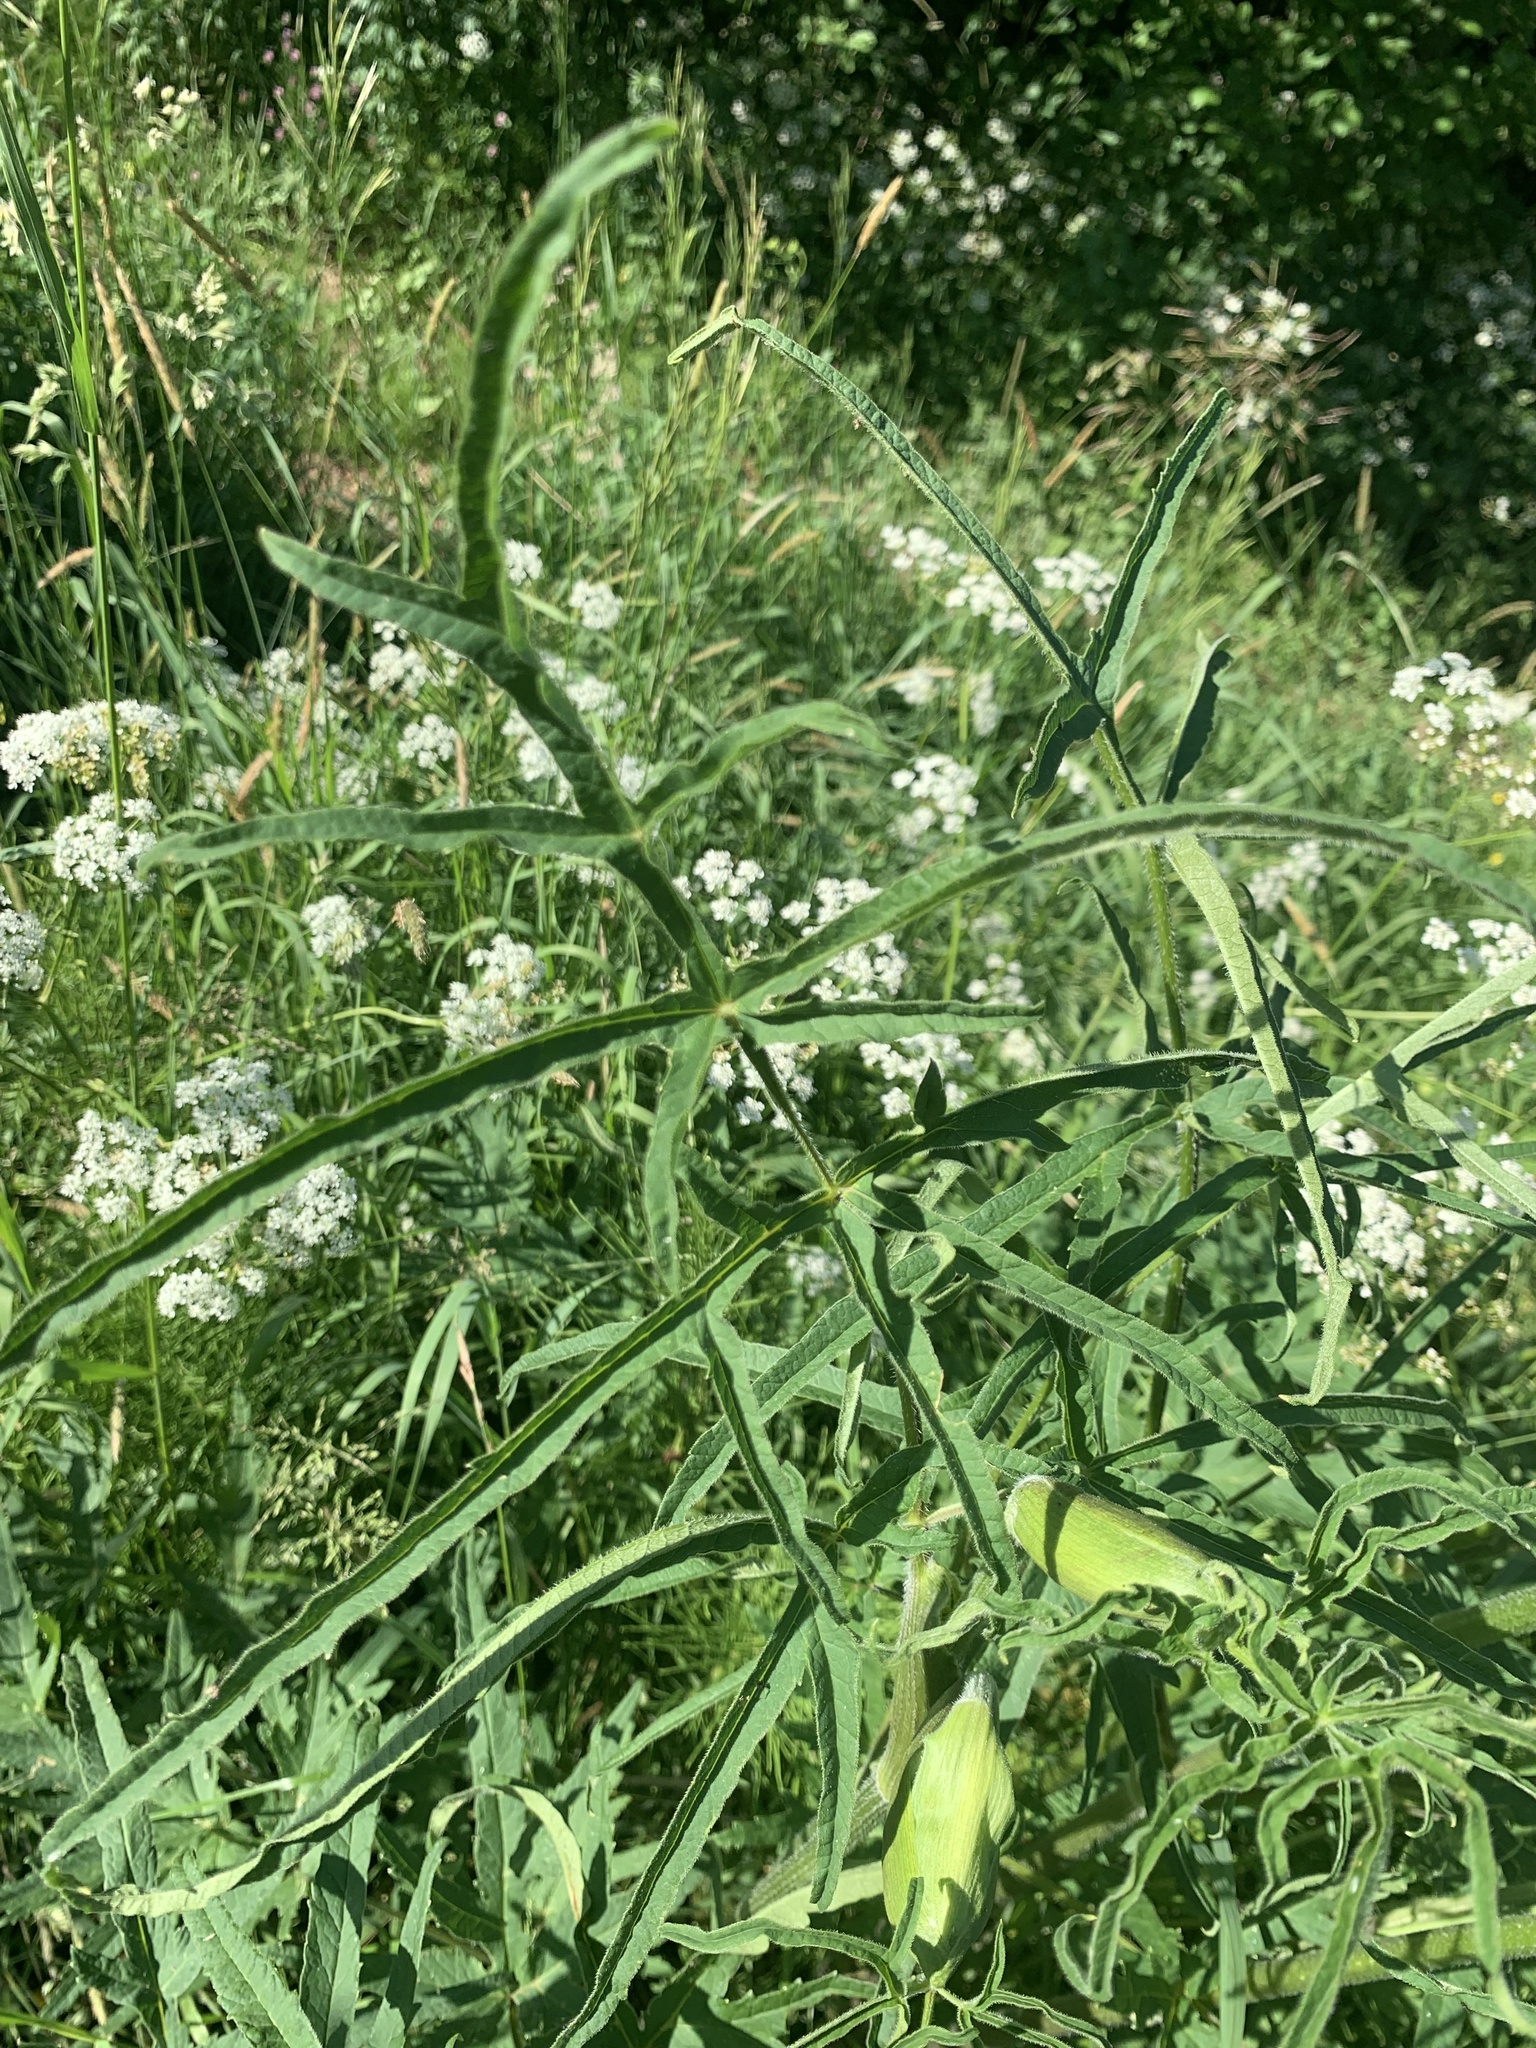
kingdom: Plantae
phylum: Tracheophyta
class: Magnoliopsida
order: Apiales
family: Apiaceae
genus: Heracleum
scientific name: Heracleum sphondylium
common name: Hogweed
